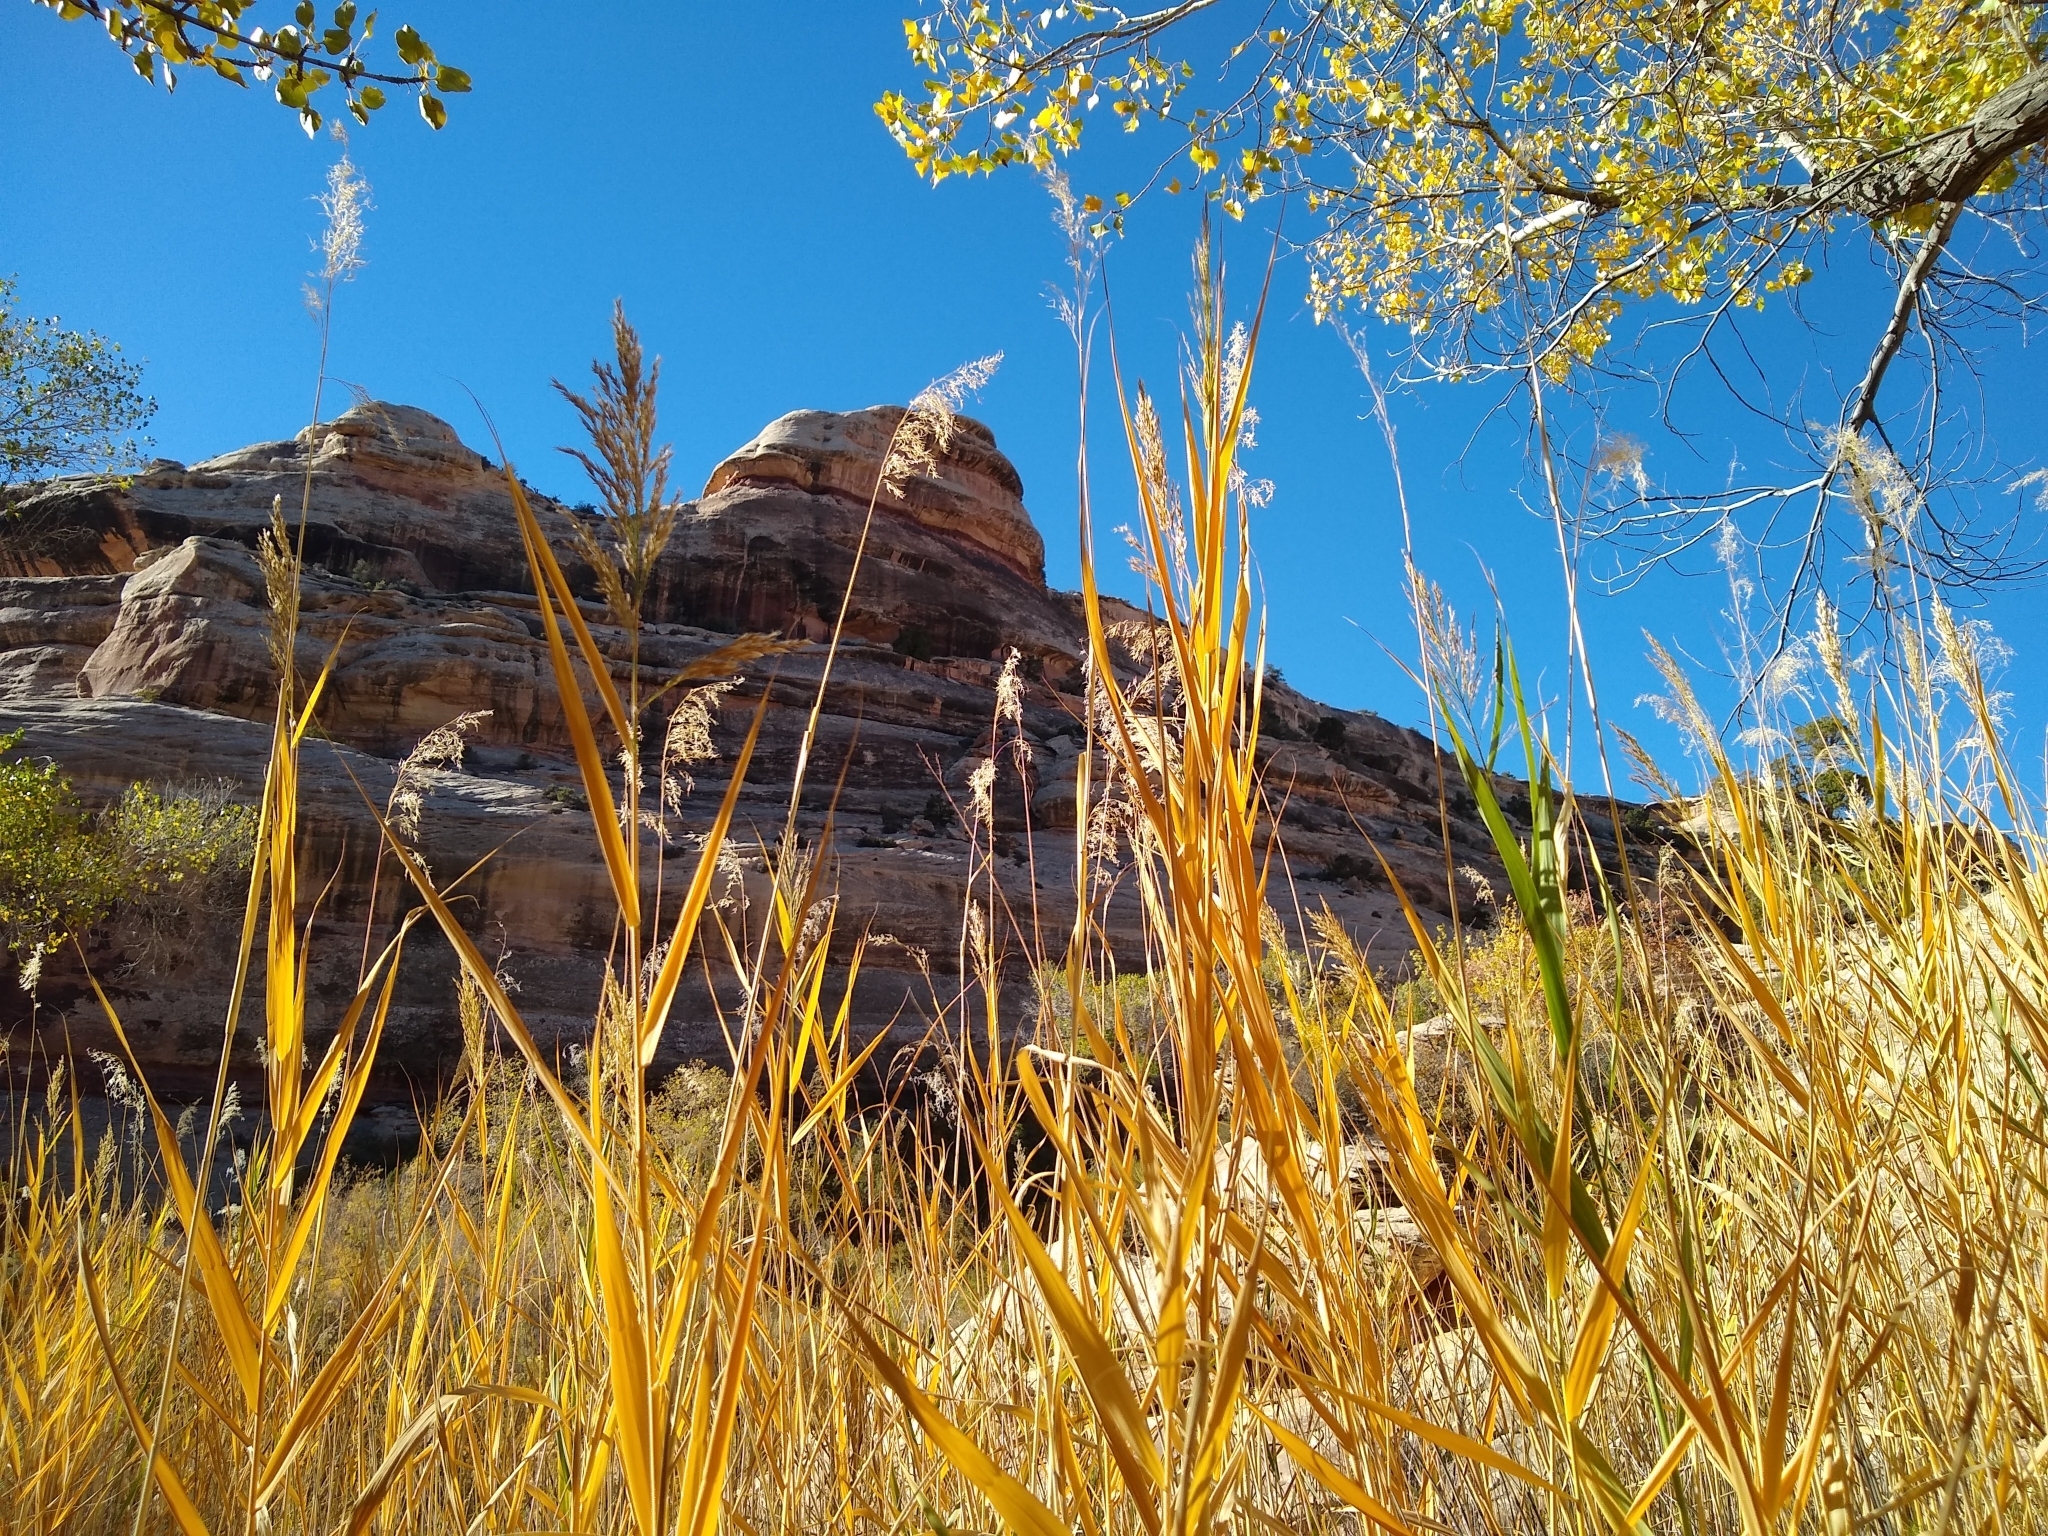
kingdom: Plantae
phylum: Tracheophyta
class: Liliopsida
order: Poales
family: Poaceae
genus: Phragmites
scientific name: Phragmites australis
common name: Common reed
